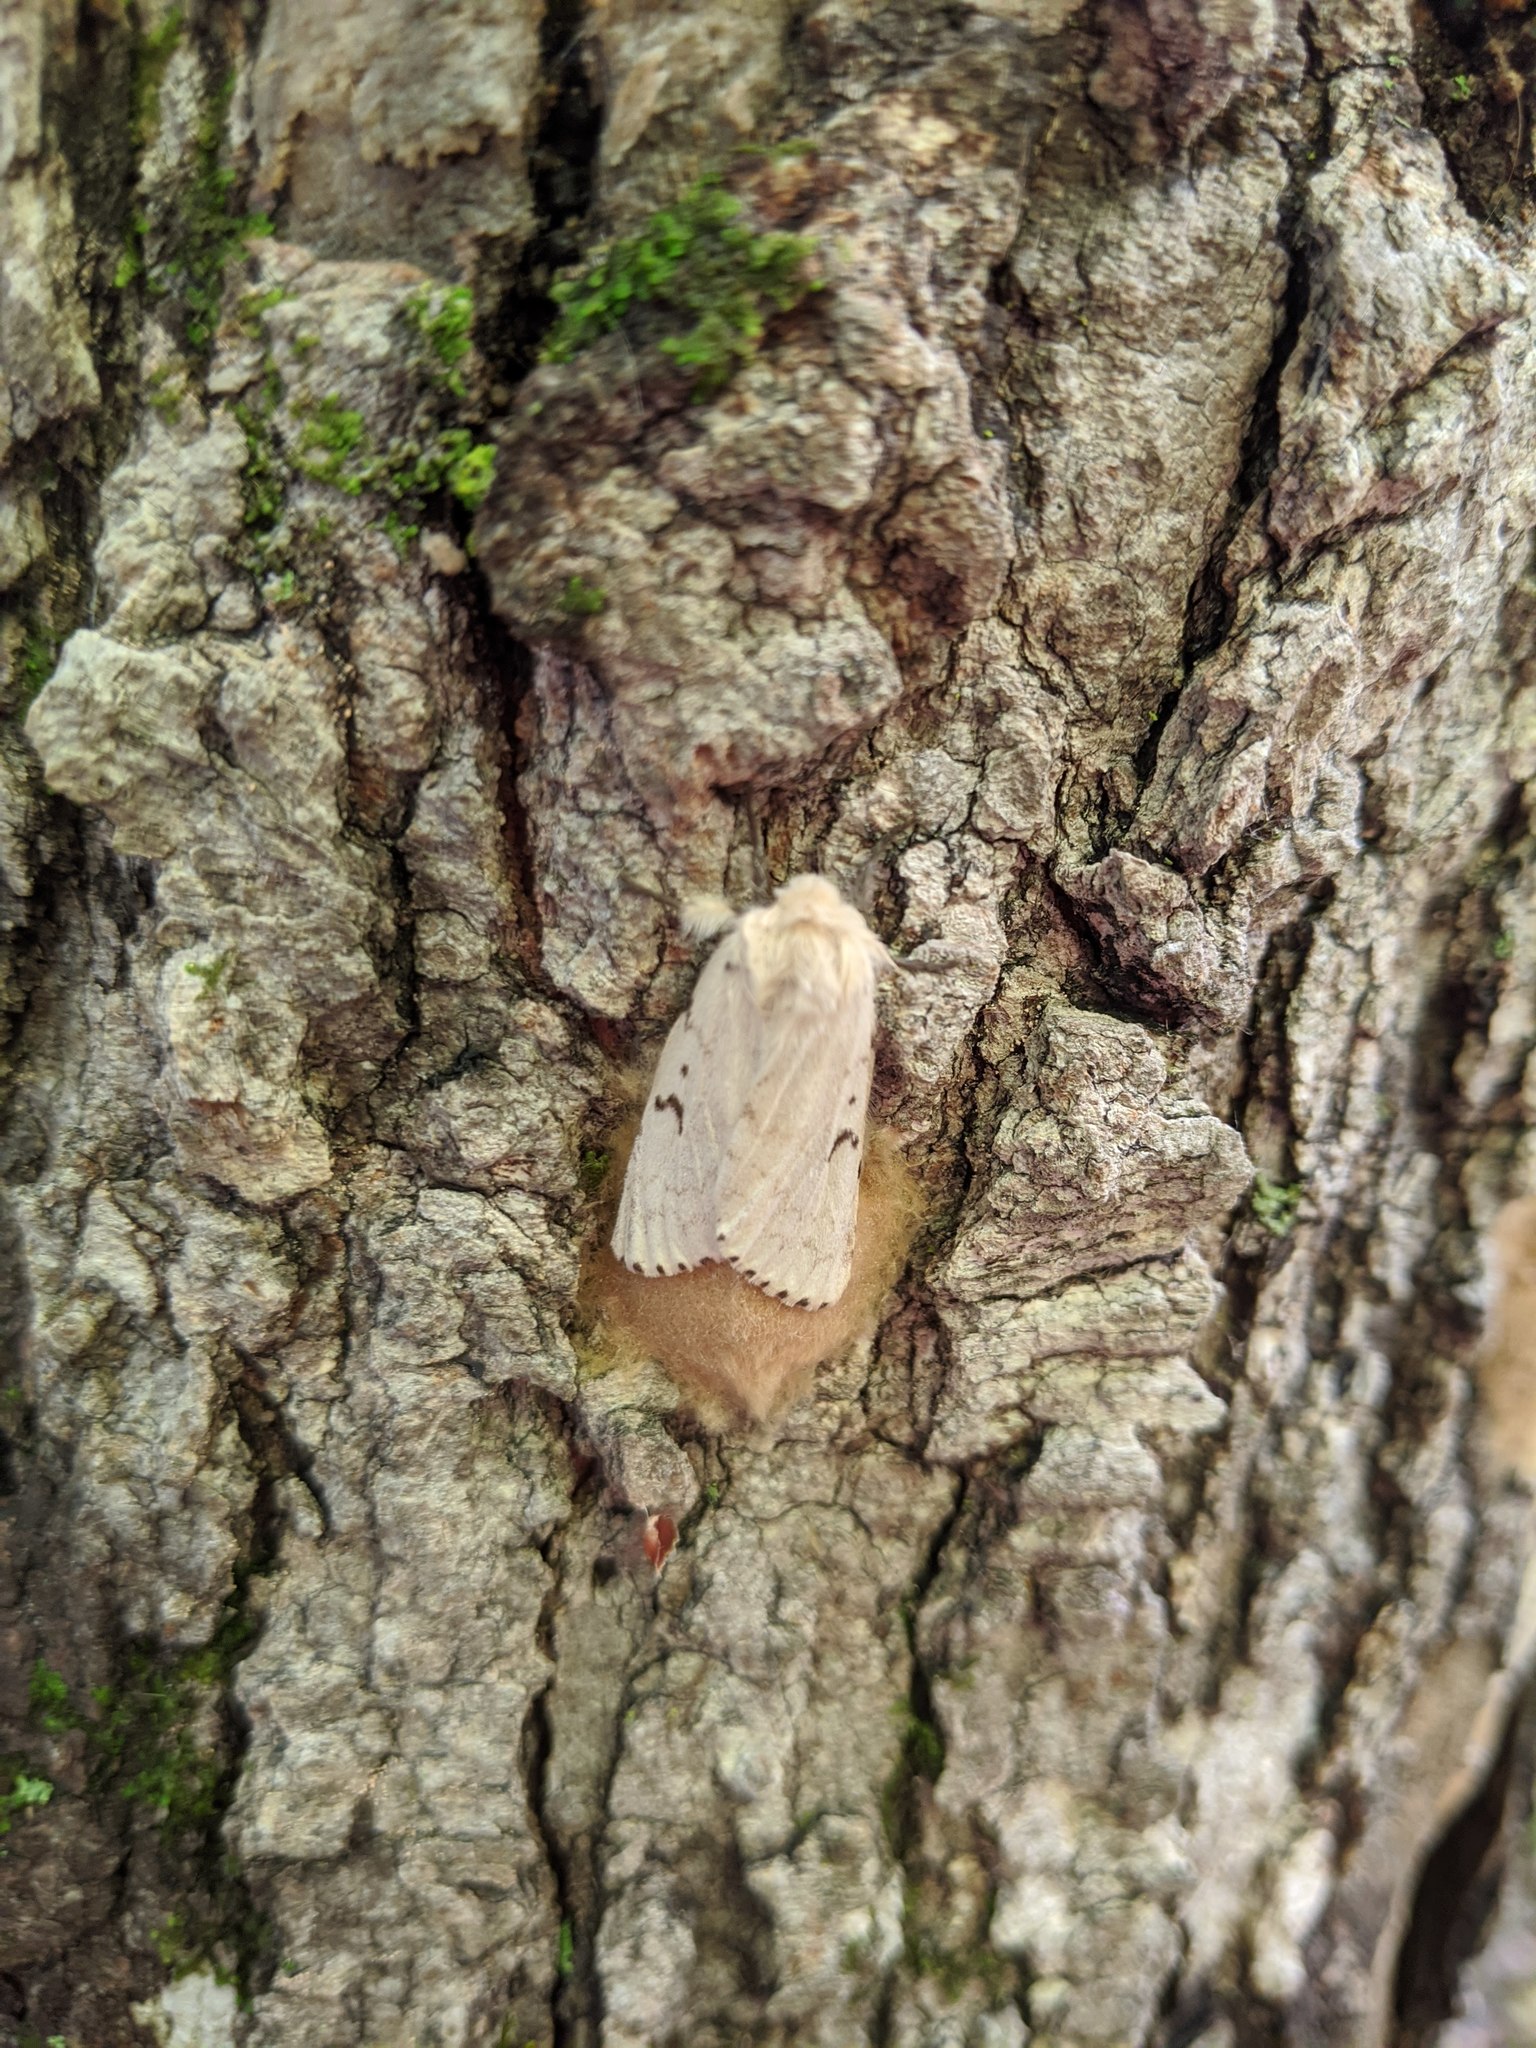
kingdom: Animalia
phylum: Arthropoda
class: Insecta
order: Lepidoptera
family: Erebidae
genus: Lymantria
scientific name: Lymantria dispar
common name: Gypsy moth
